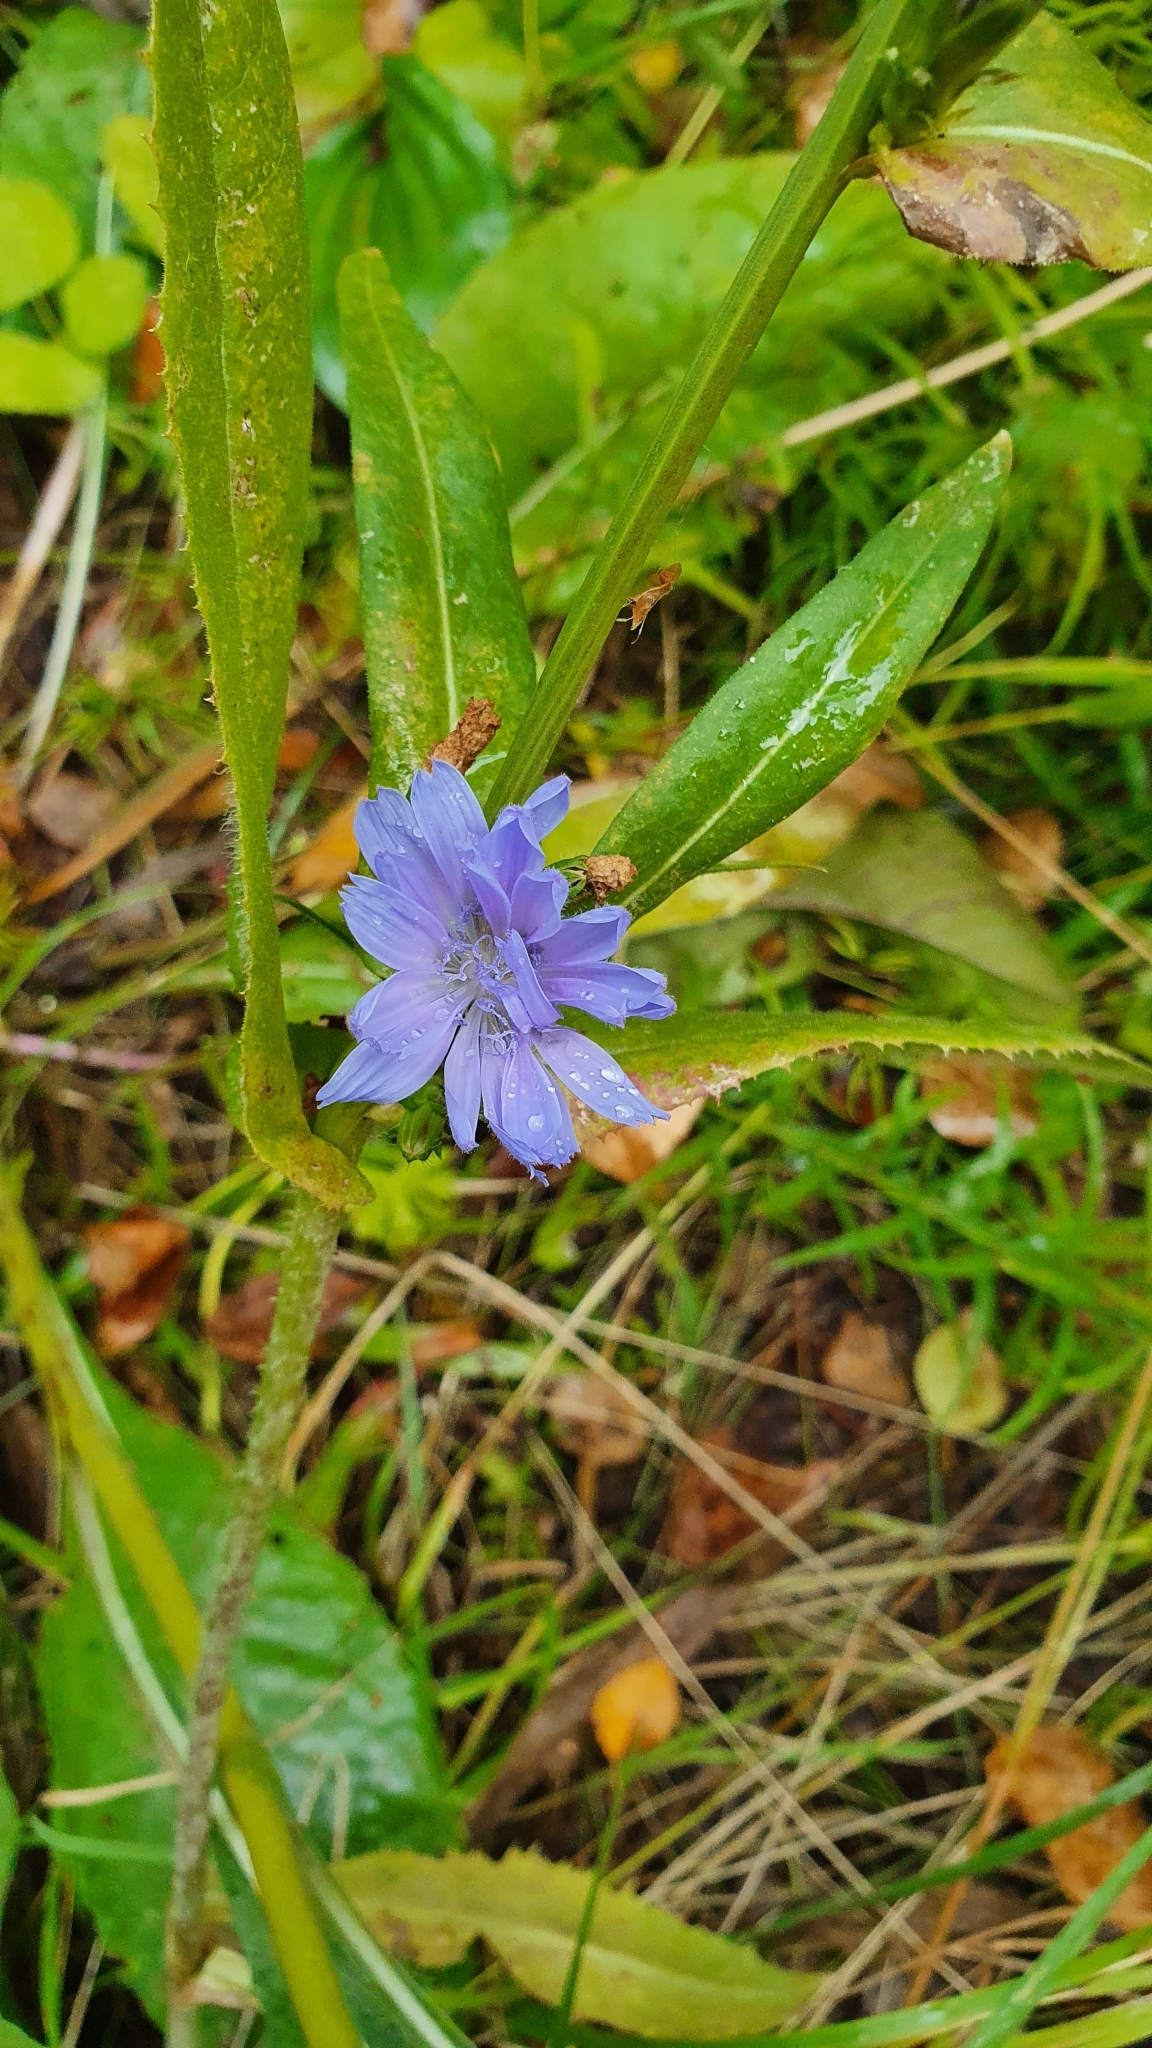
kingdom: Plantae
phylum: Tracheophyta
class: Magnoliopsida
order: Asterales
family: Asteraceae
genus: Cichorium
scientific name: Cichorium intybus
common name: Chicory
